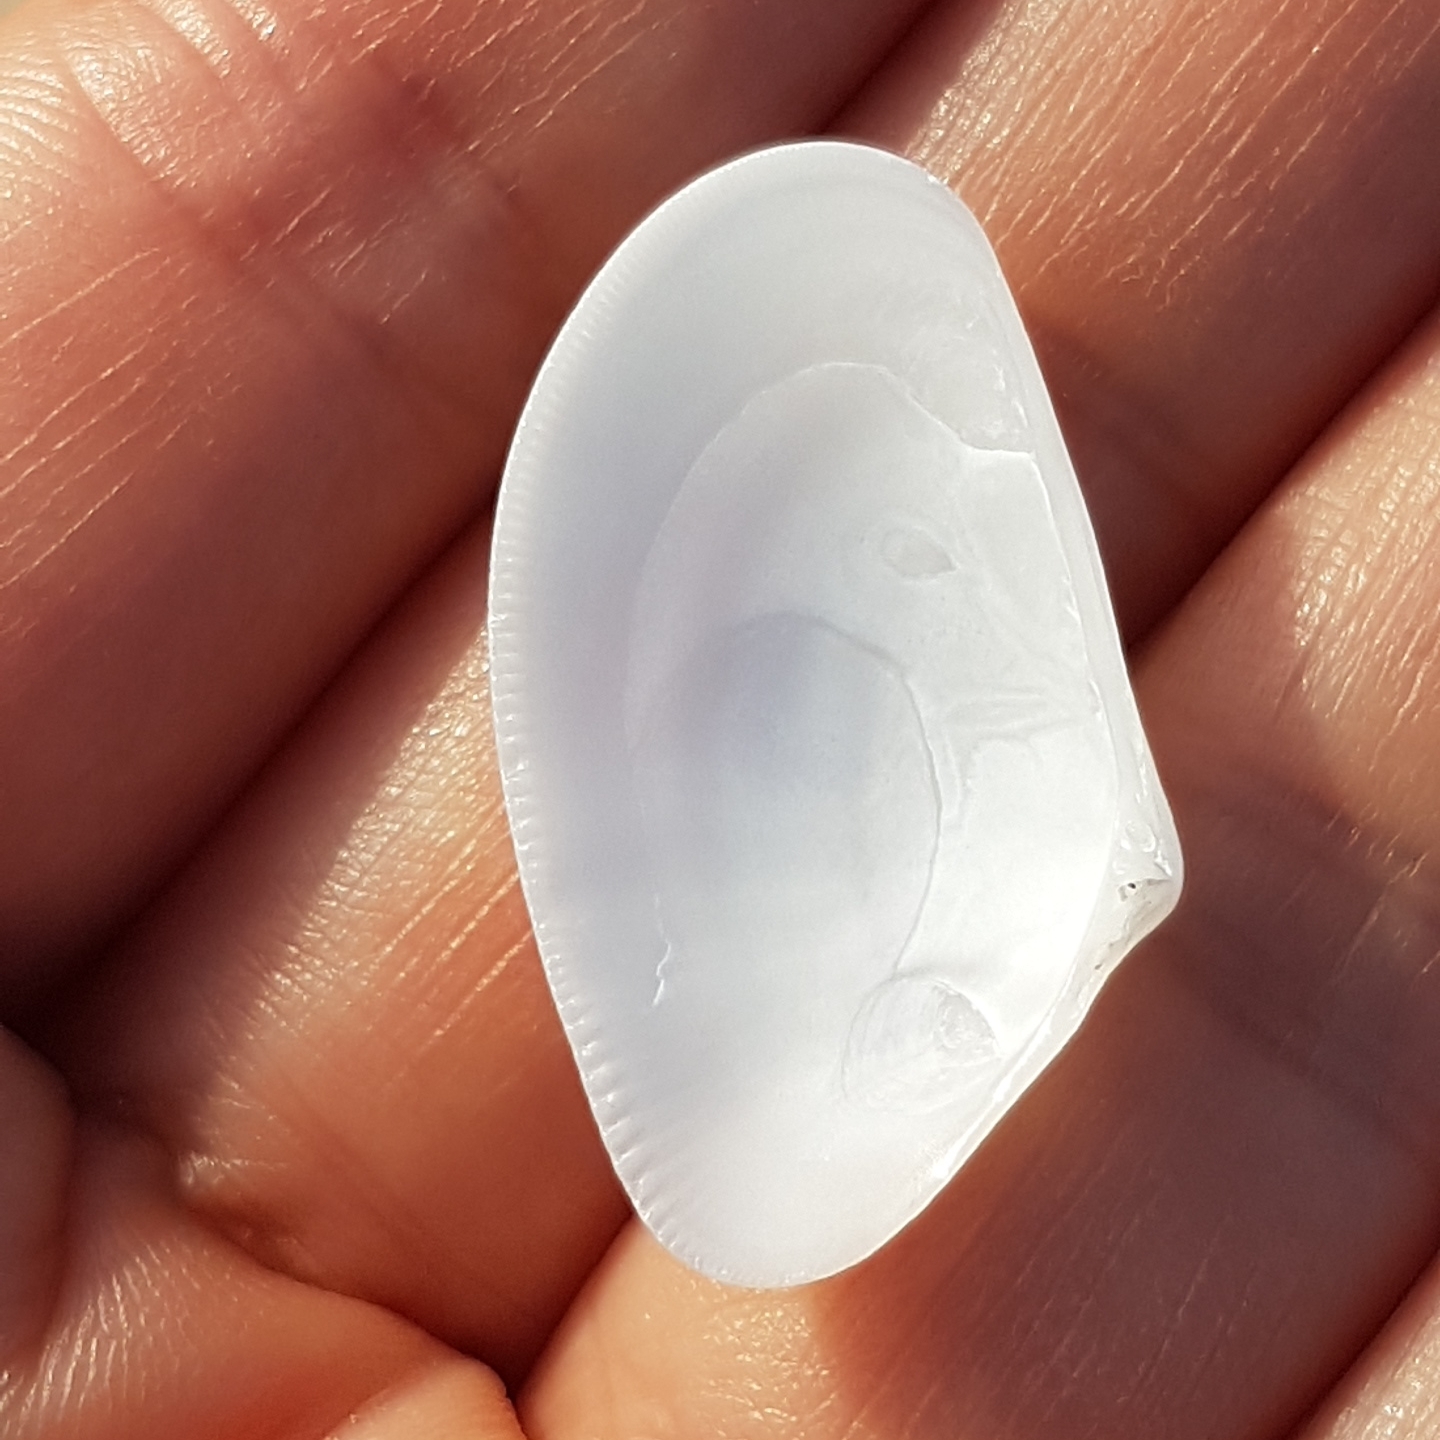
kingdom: Animalia
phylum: Mollusca
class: Bivalvia
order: Cardiida
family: Donacidae
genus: Donax
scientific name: Donax trunculus
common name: Truncate donax
